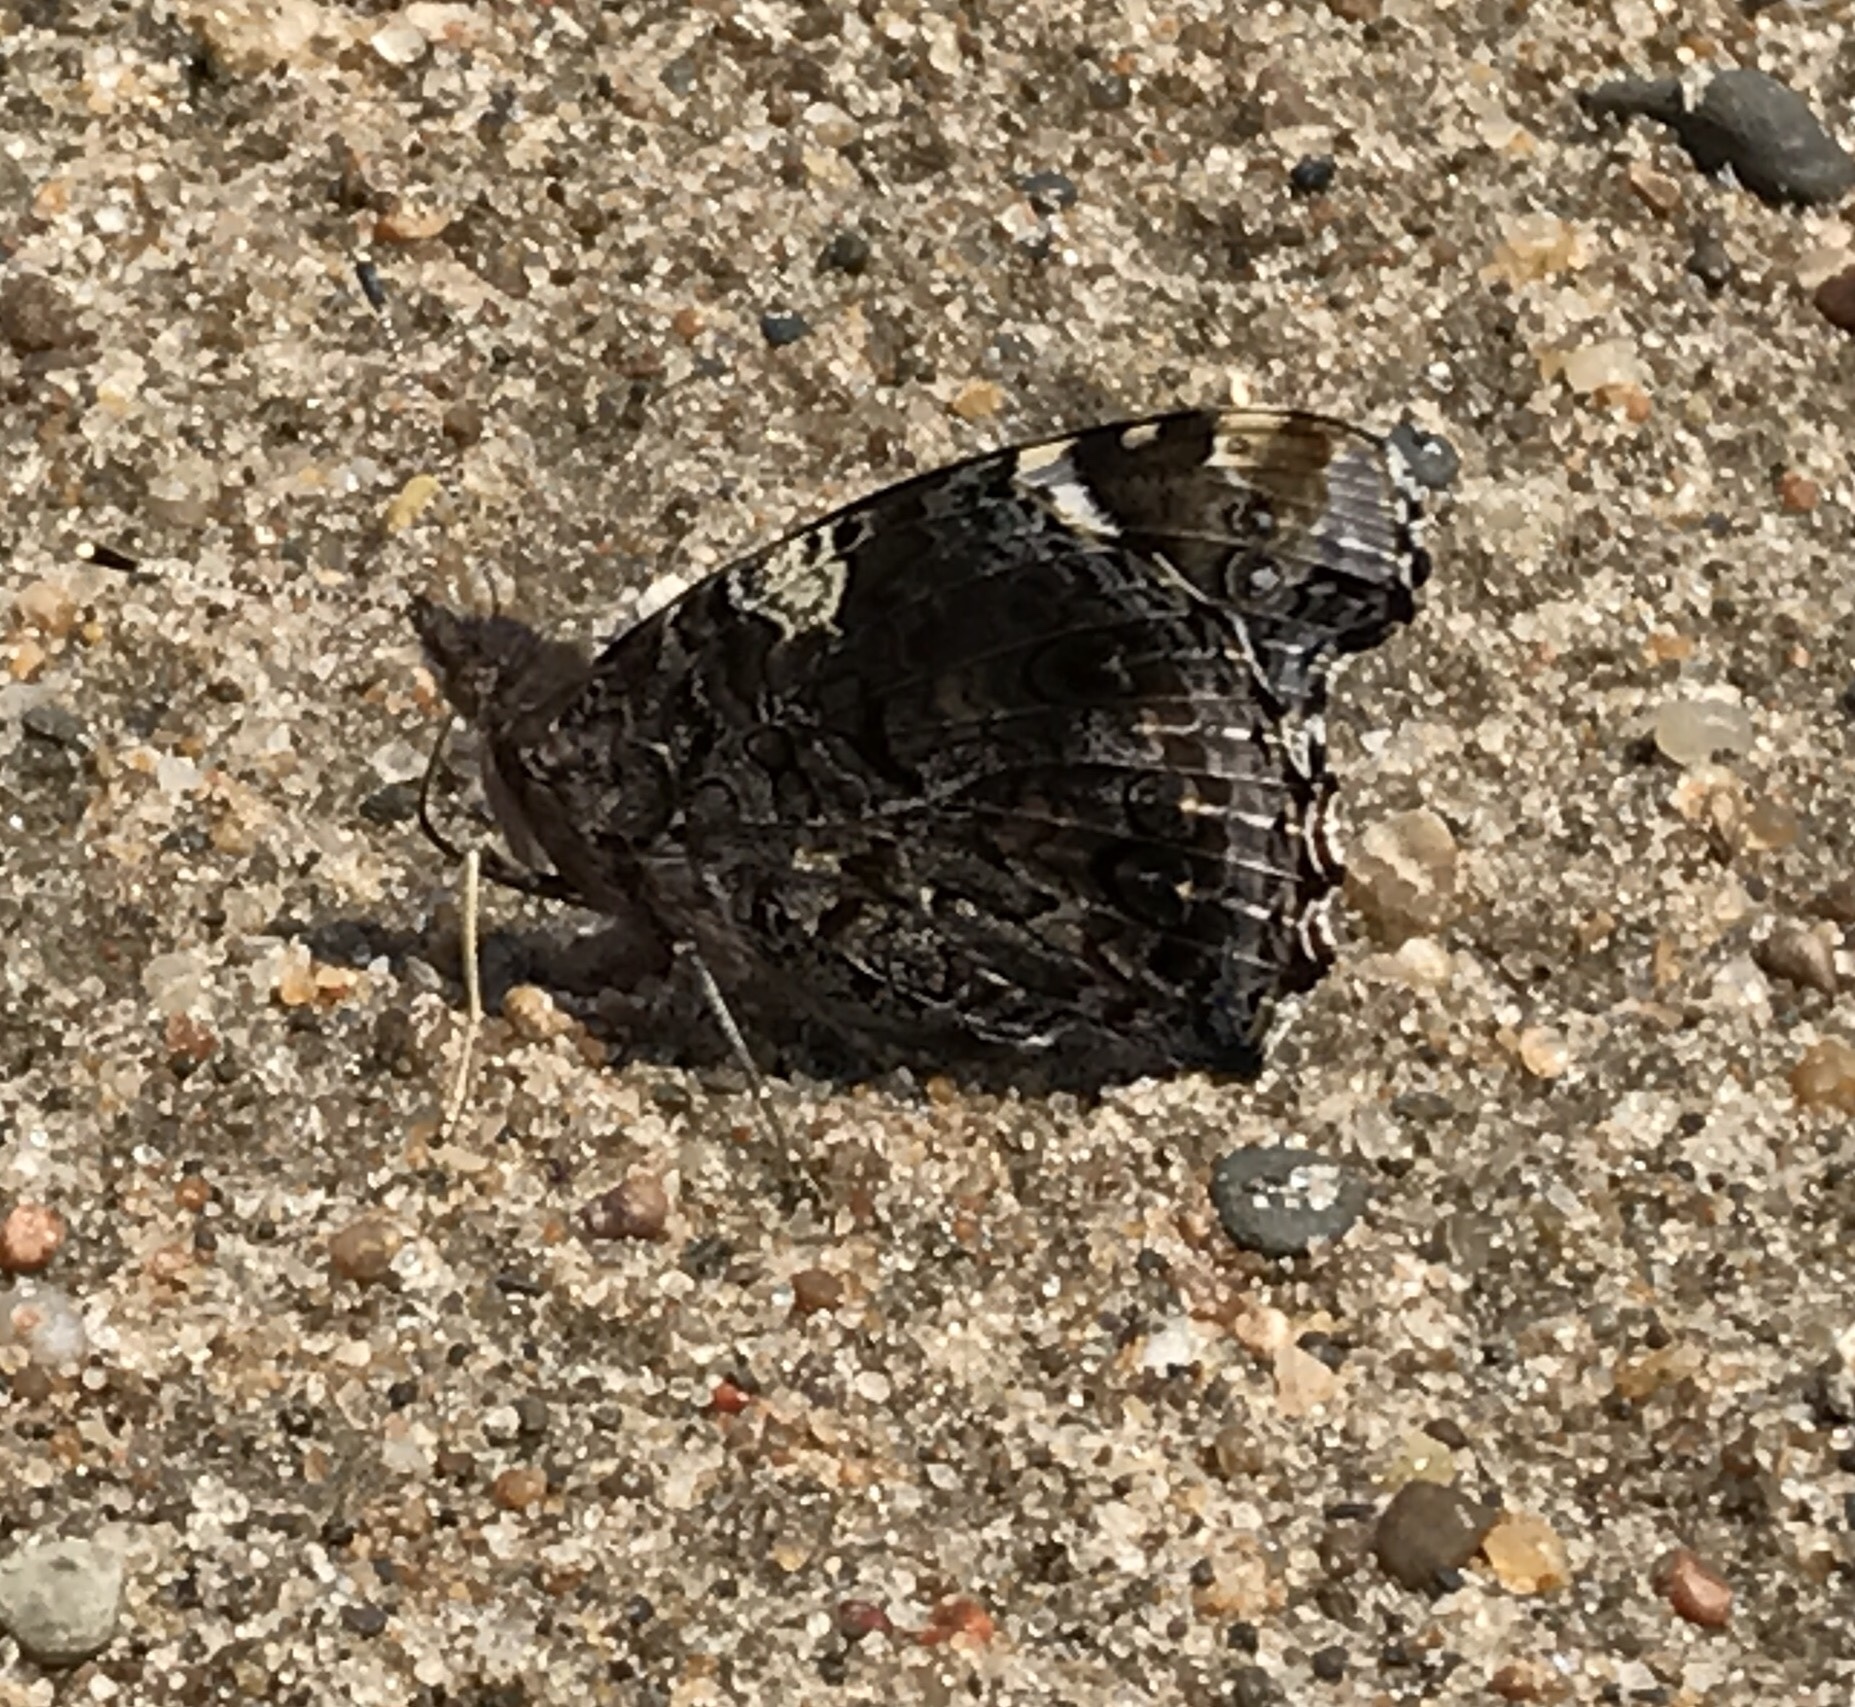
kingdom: Animalia
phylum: Arthropoda
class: Insecta
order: Lepidoptera
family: Nymphalidae
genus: Vanessa
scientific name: Vanessa atalanta
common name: Red admiral
